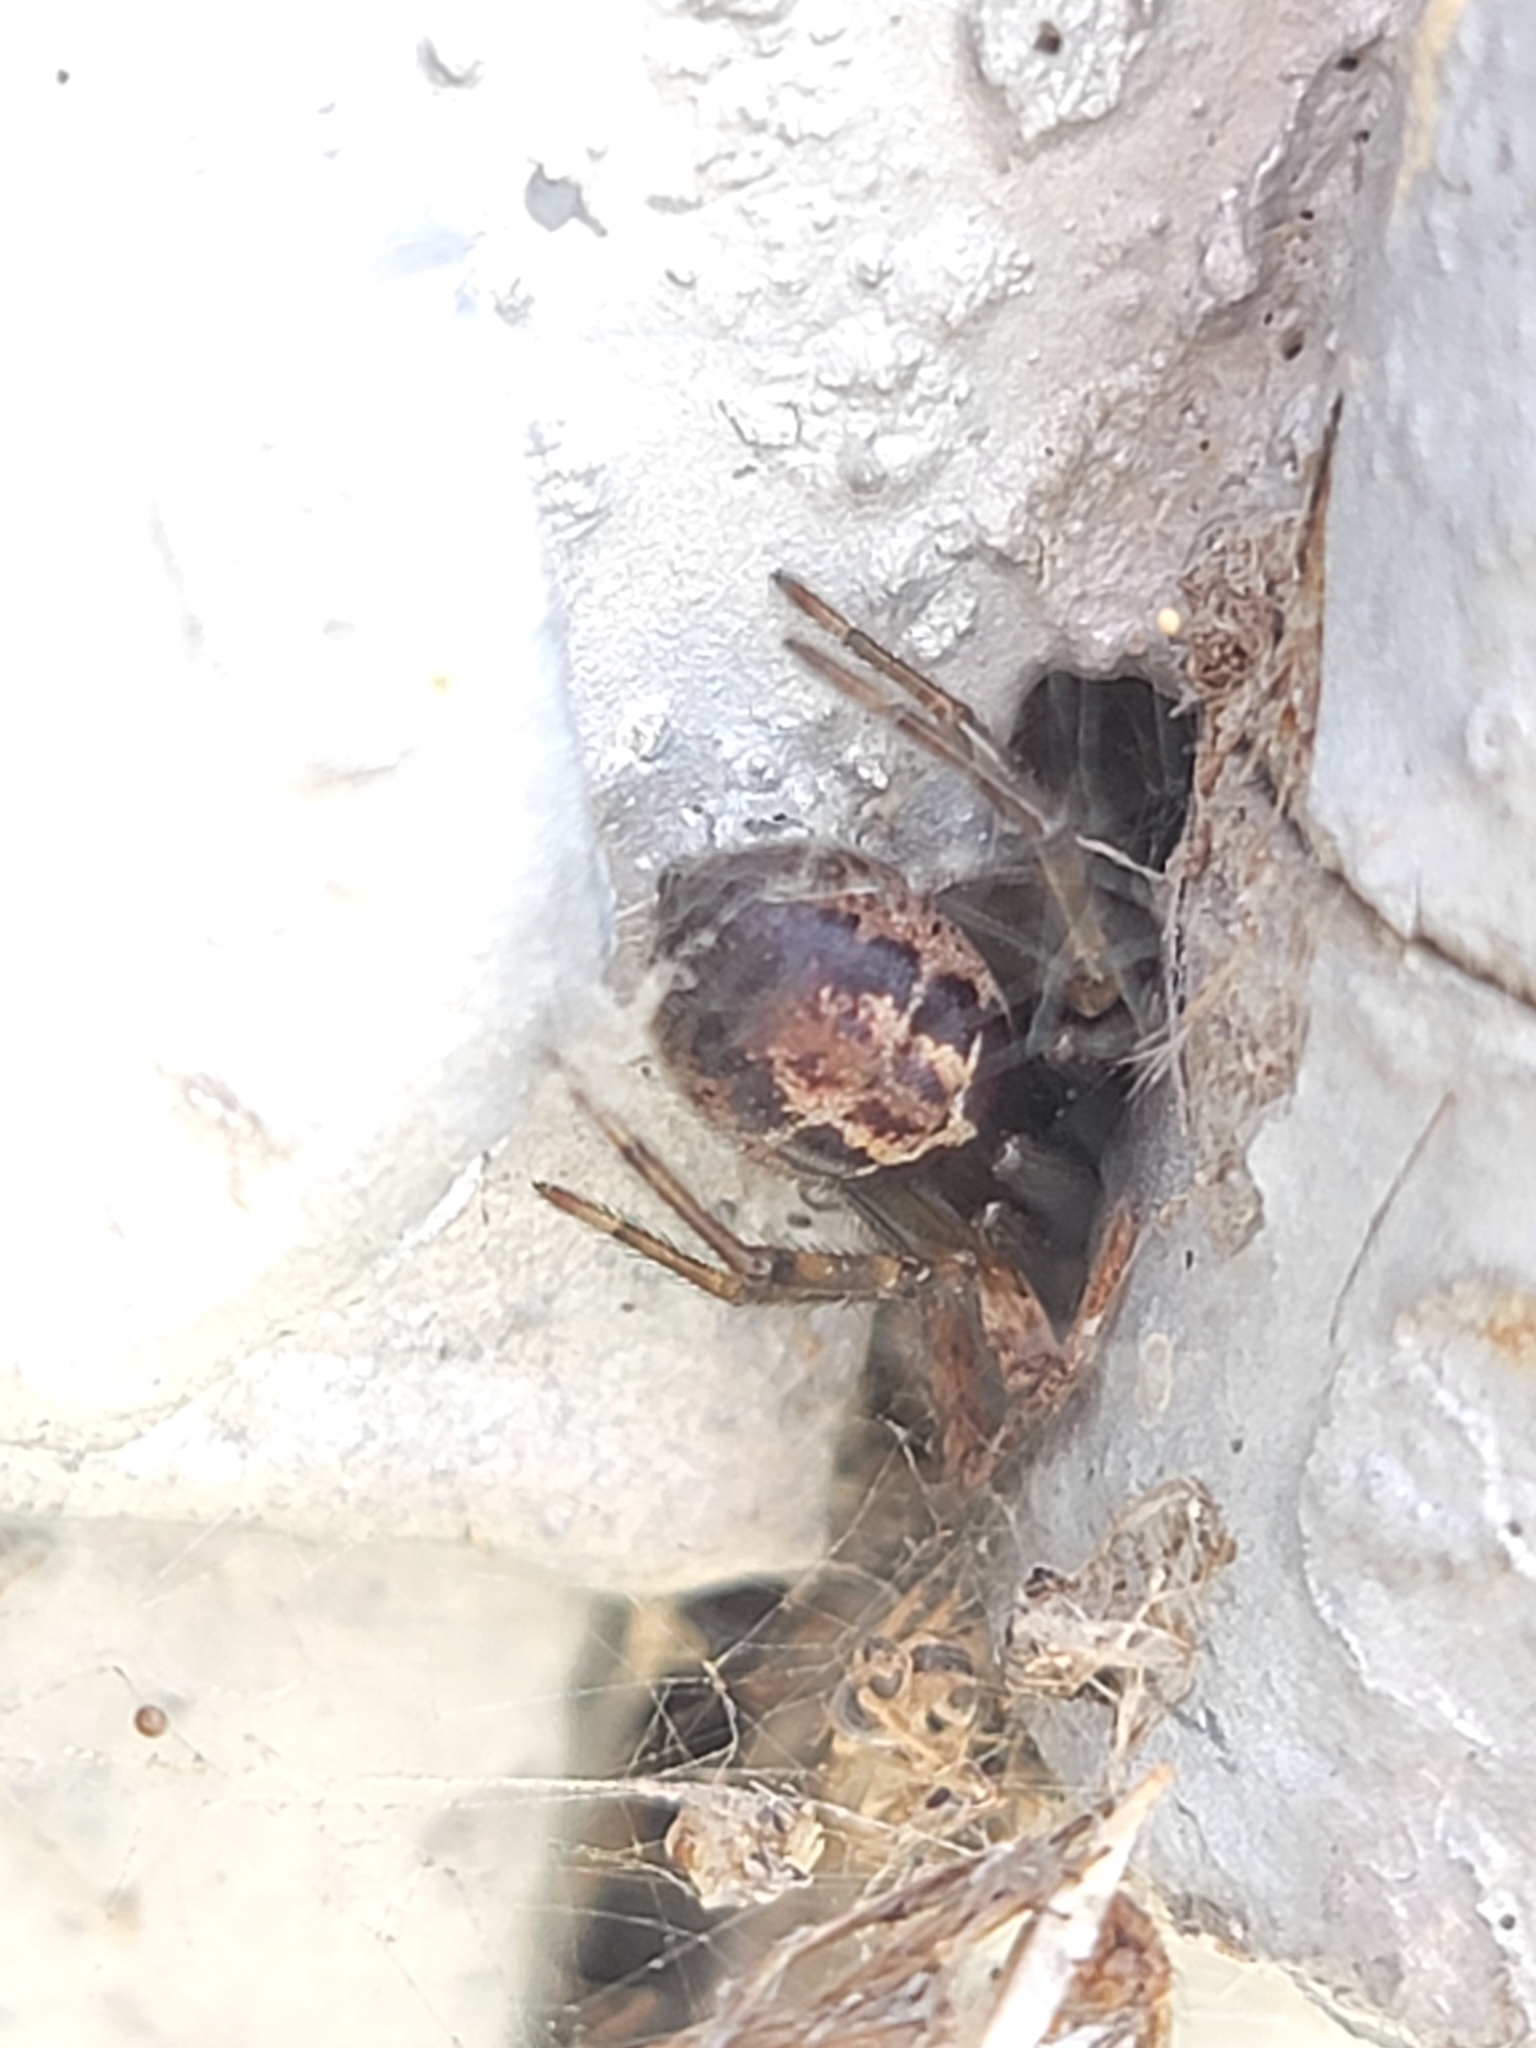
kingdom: Animalia
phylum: Arthropoda
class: Arachnida
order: Araneae
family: Theridiidae
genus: Steatoda
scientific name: Steatoda nobilis
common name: Cobweb weaver
